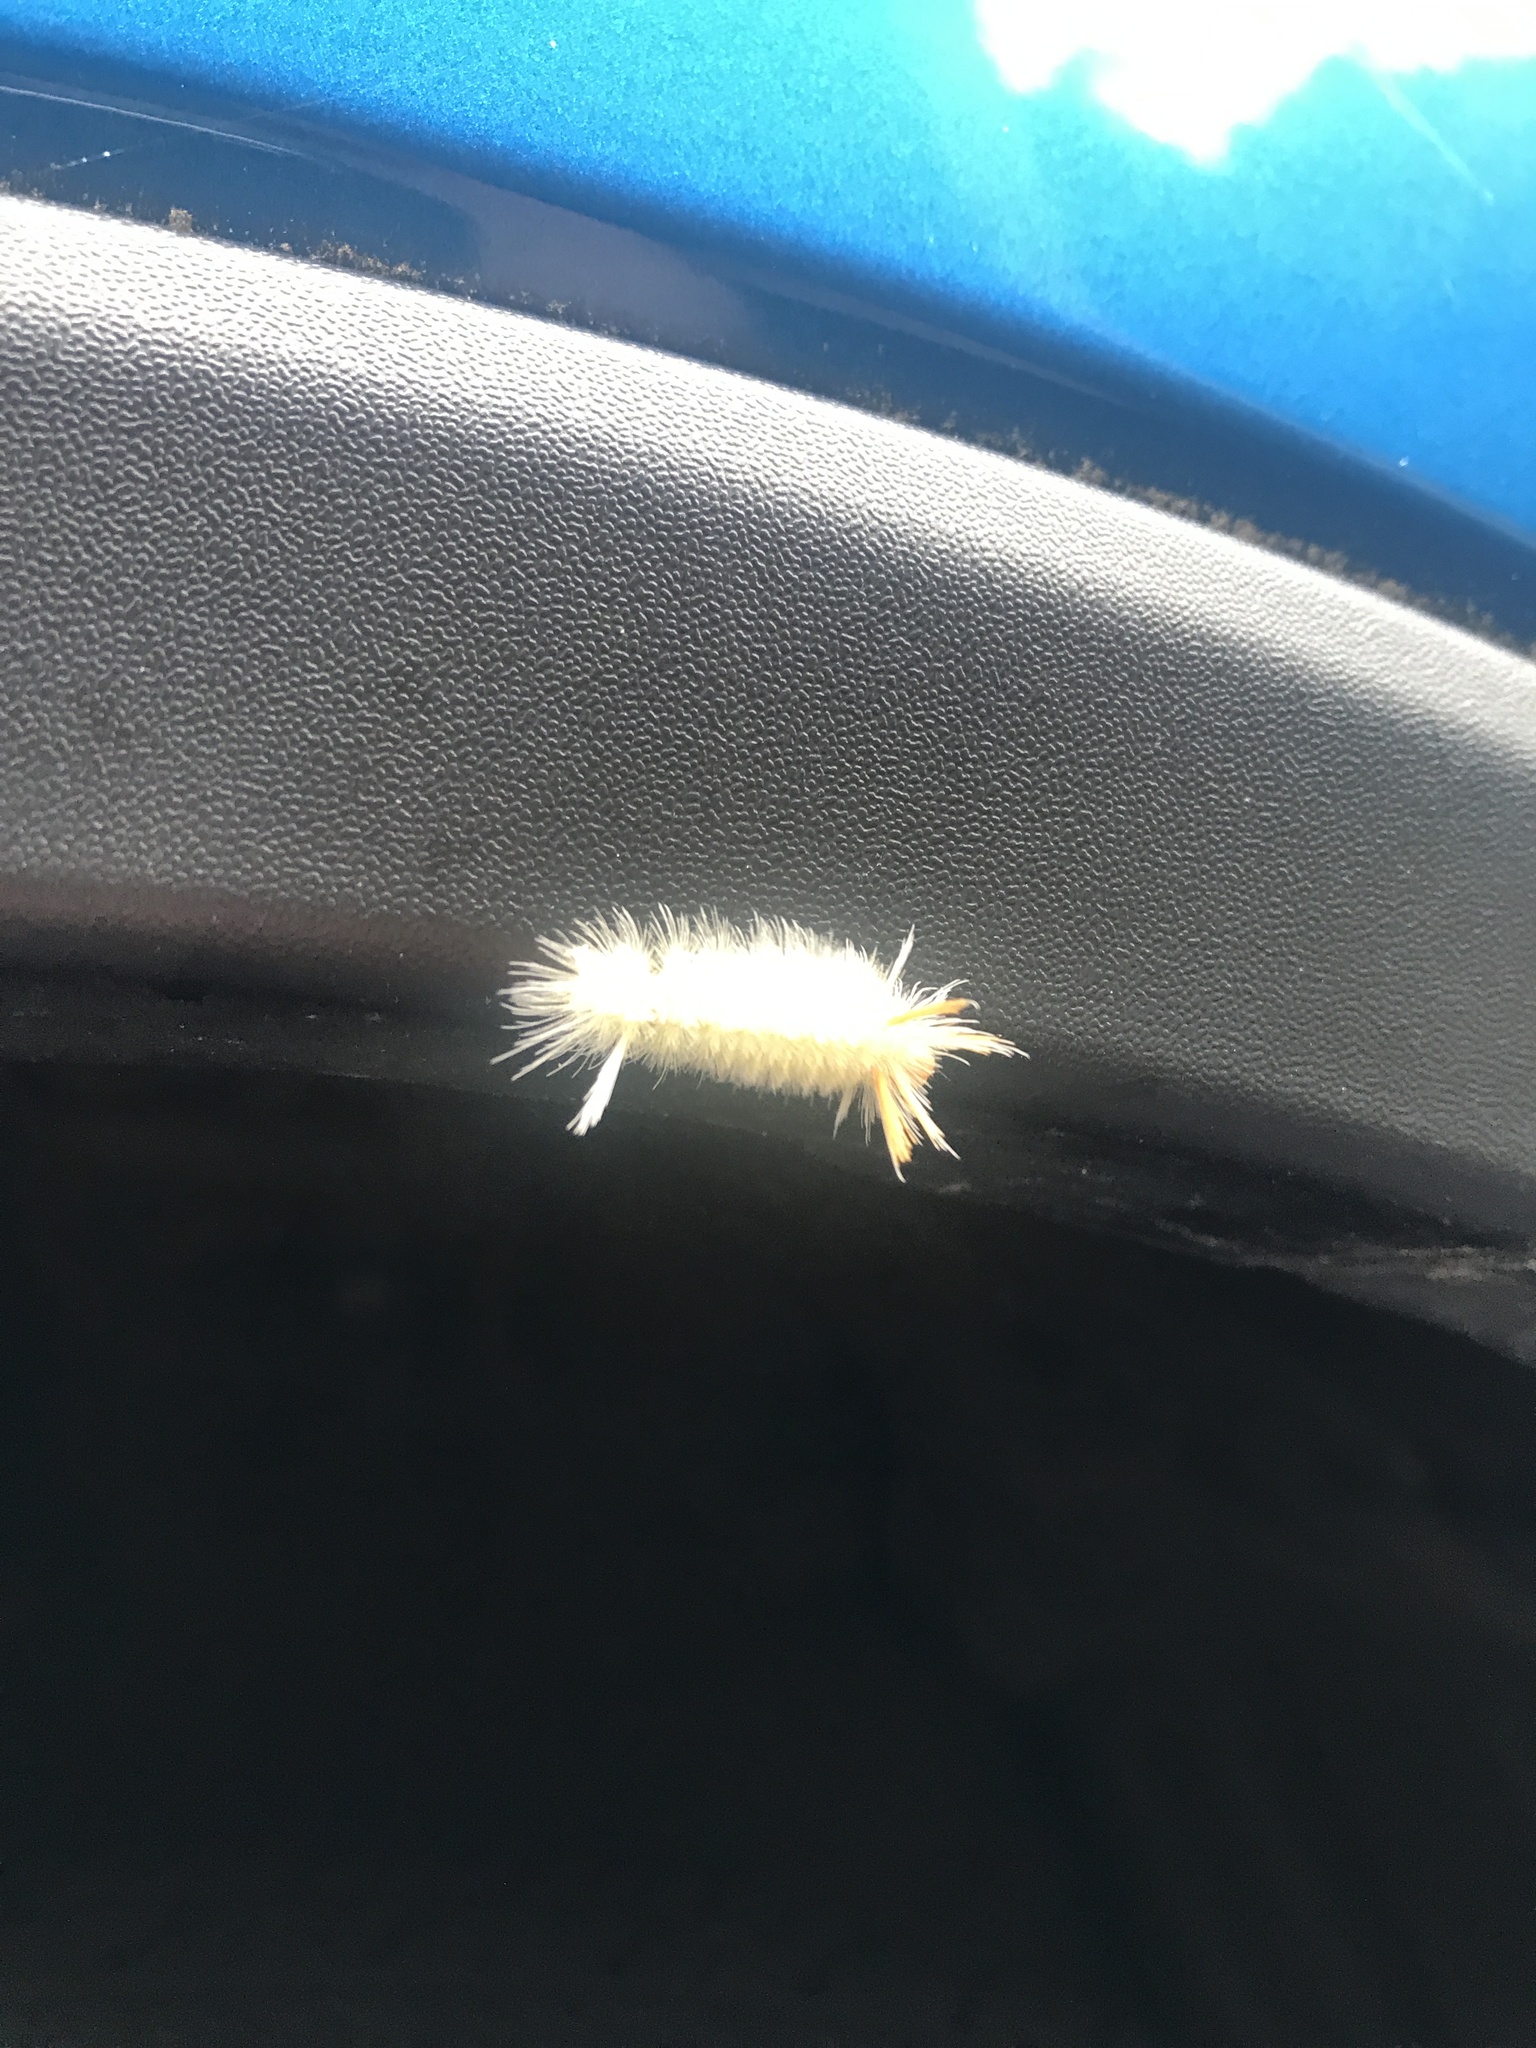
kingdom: Animalia
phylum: Arthropoda
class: Insecta
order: Lepidoptera
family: Erebidae
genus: Halysidota
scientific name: Halysidota harrisii
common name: Sycamore tussock moth
